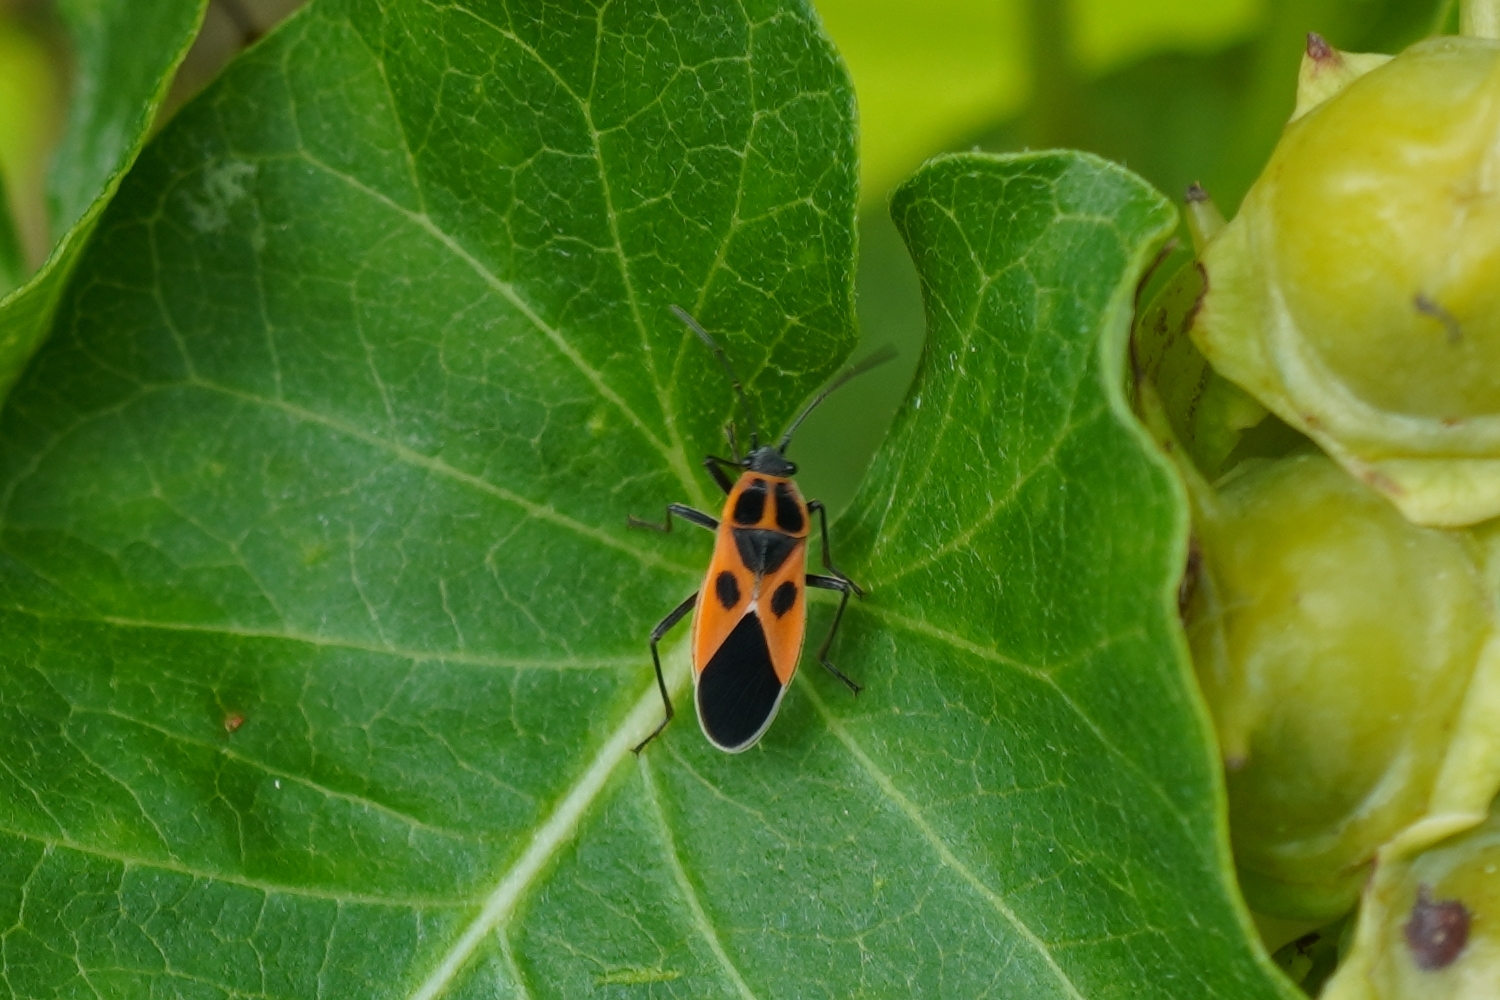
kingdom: Animalia
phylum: Arthropoda
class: Insecta
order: Hemiptera
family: Lygaeidae
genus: Tropidothorax
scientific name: Tropidothorax cruciger
